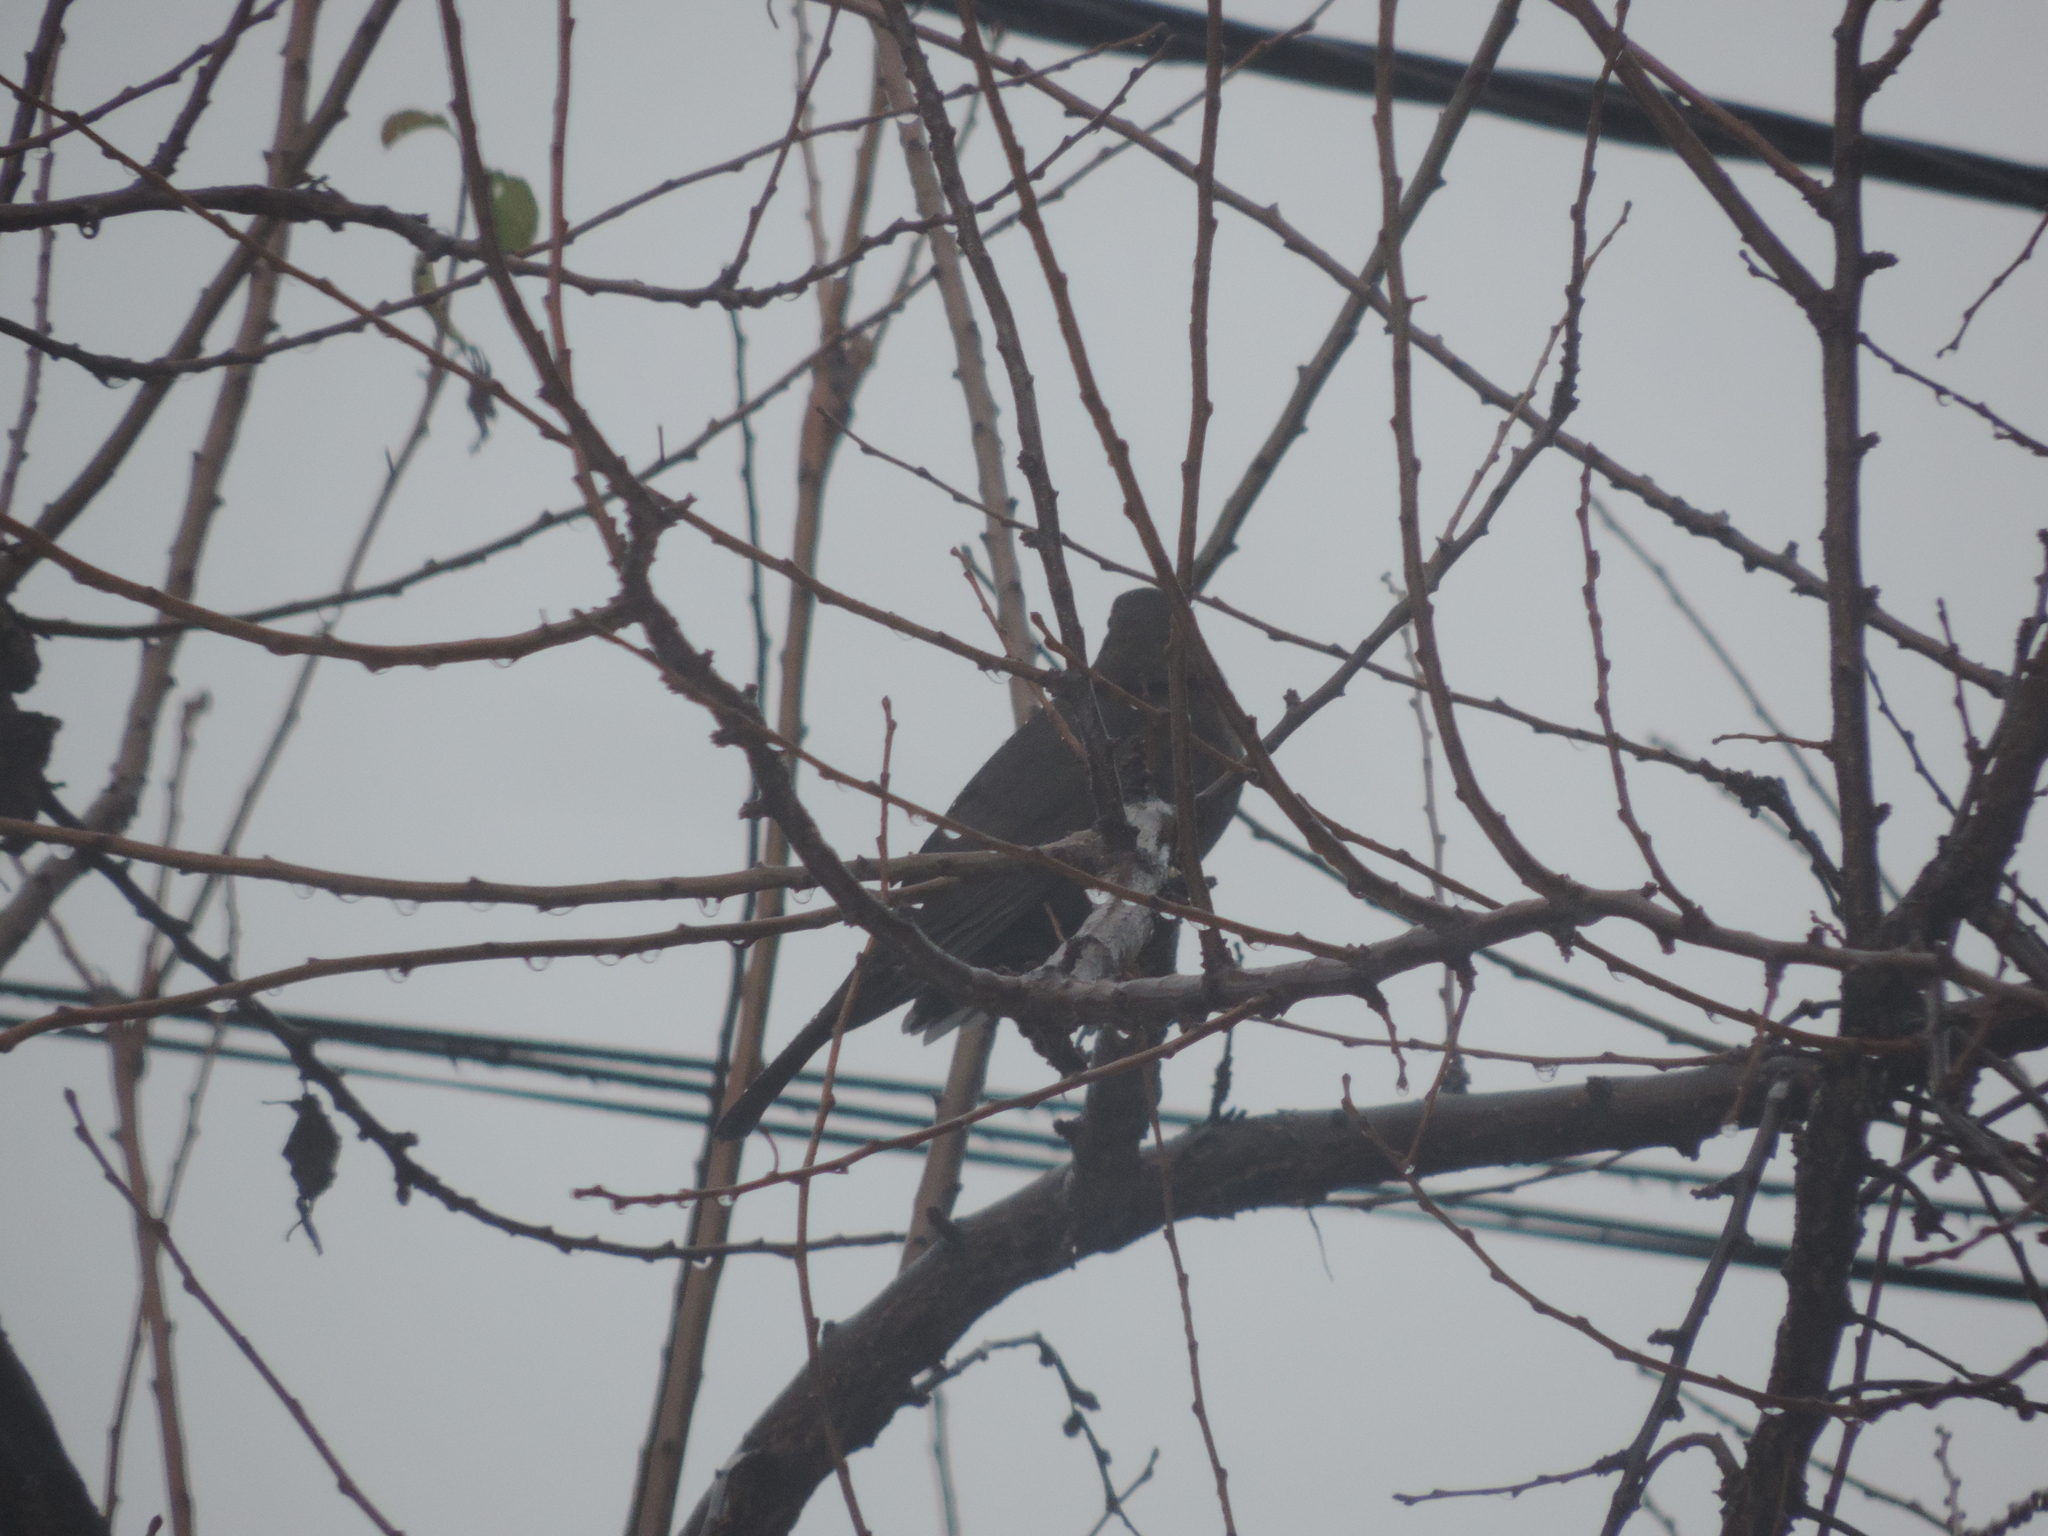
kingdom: Animalia
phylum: Chordata
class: Aves
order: Passeriformes
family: Turdidae
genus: Turdus
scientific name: Turdus merula
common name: Common blackbird
